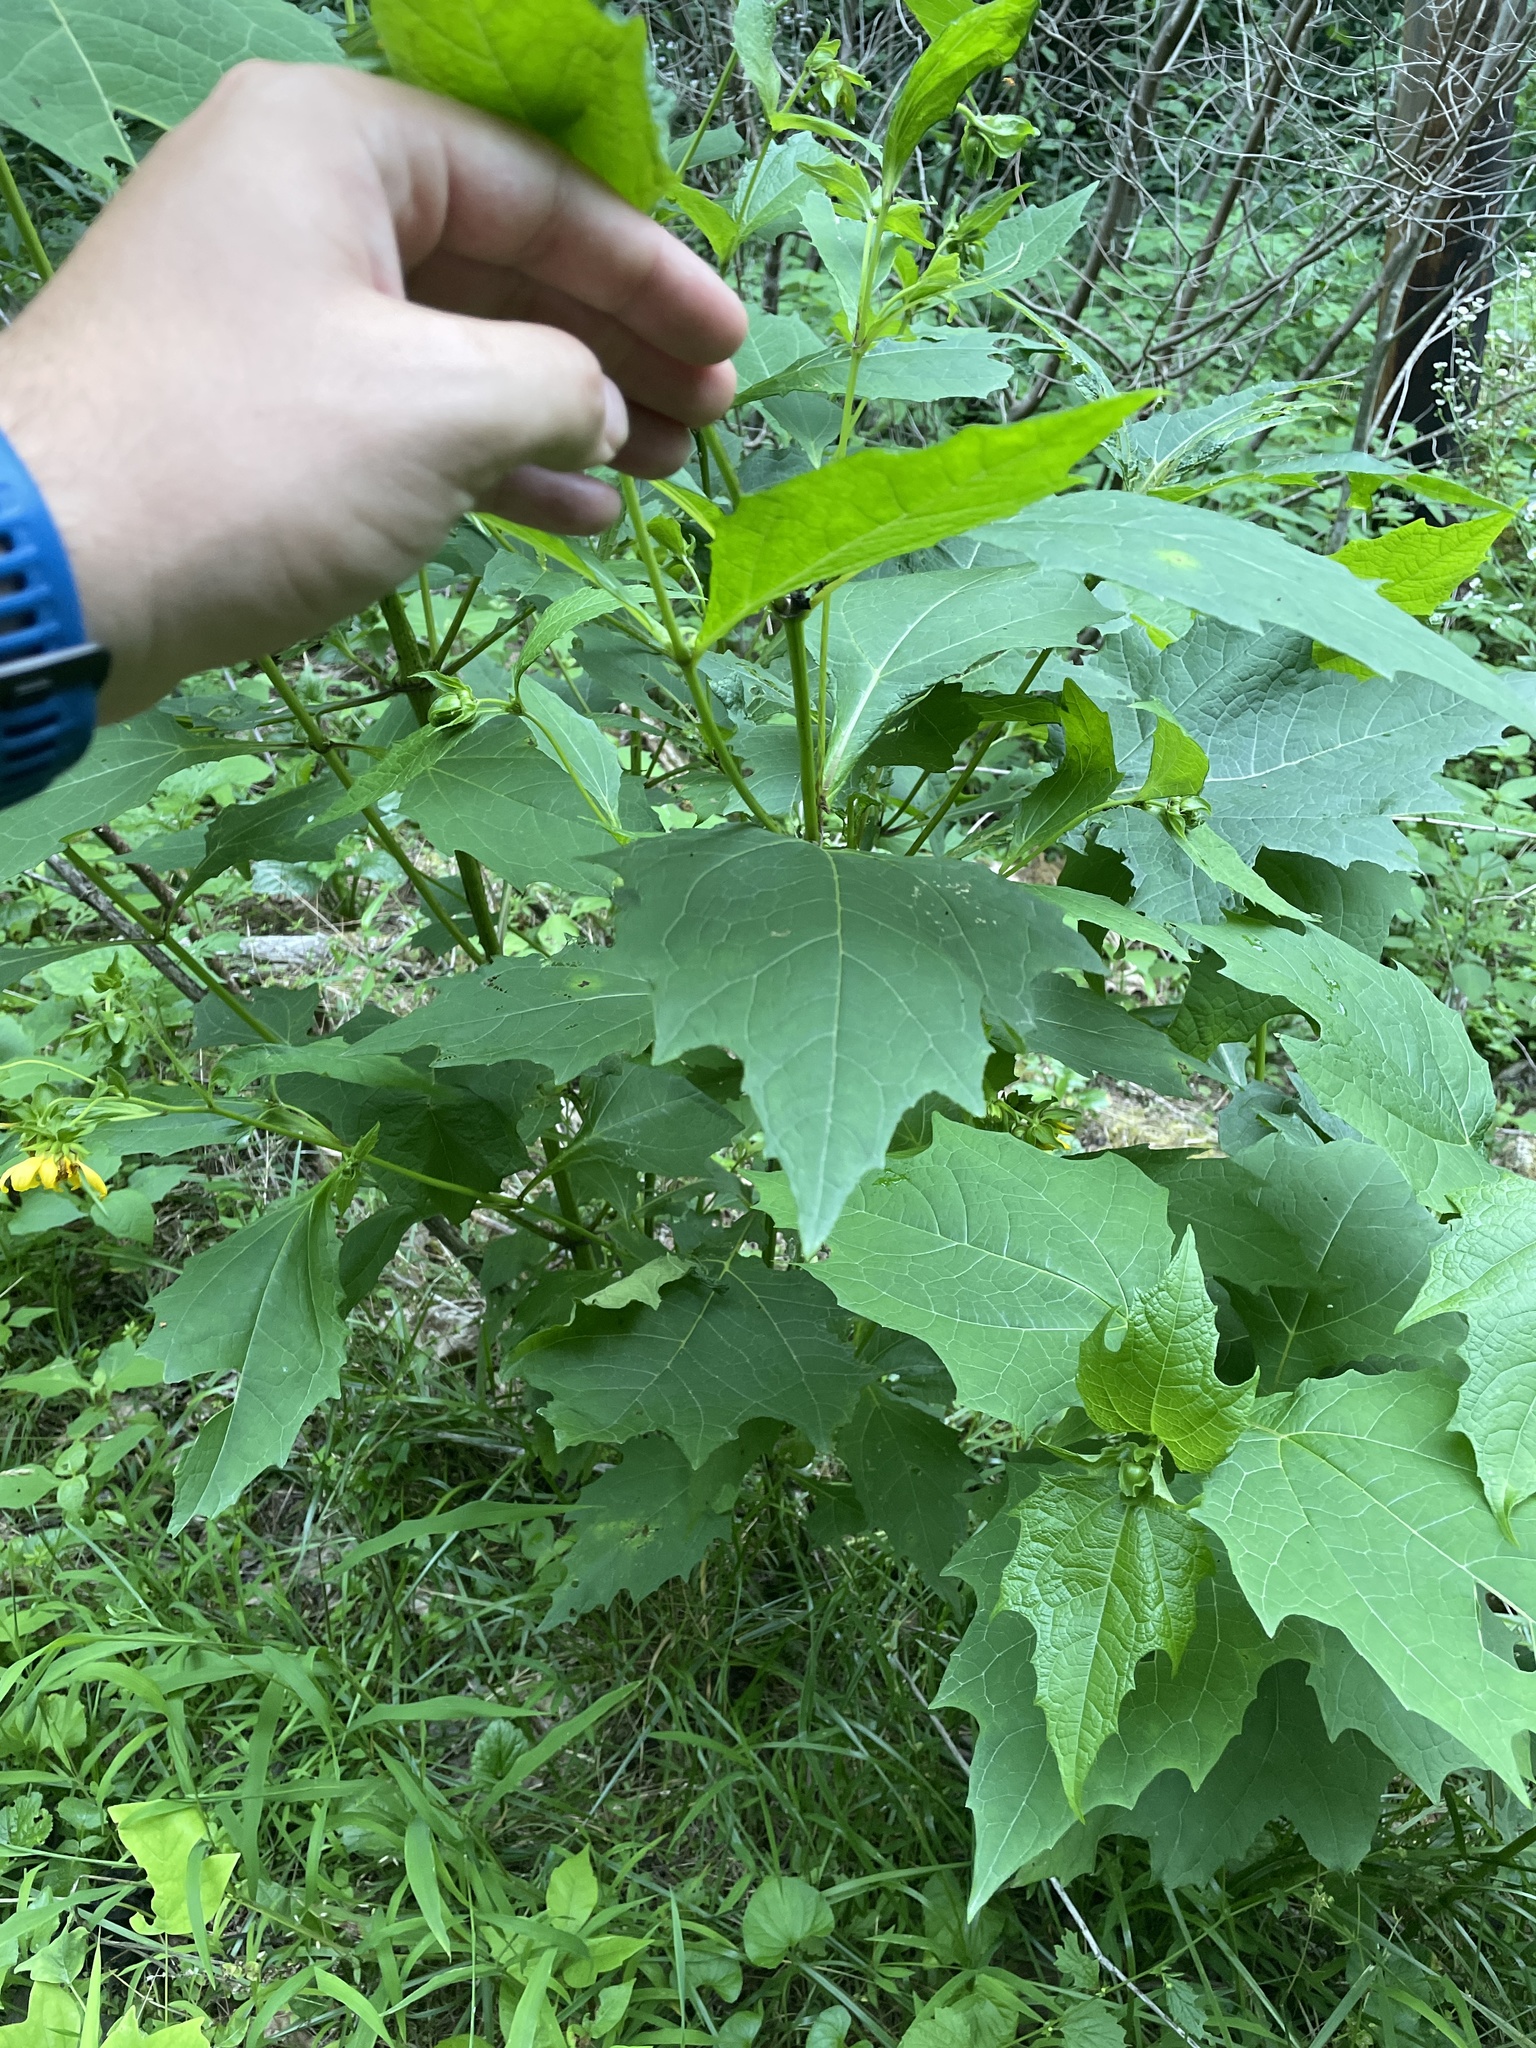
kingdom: Plantae
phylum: Tracheophyta
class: Magnoliopsida
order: Asterales
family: Asteraceae
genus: Smallanthus
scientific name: Smallanthus uvedalia
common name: Bear's-foot
